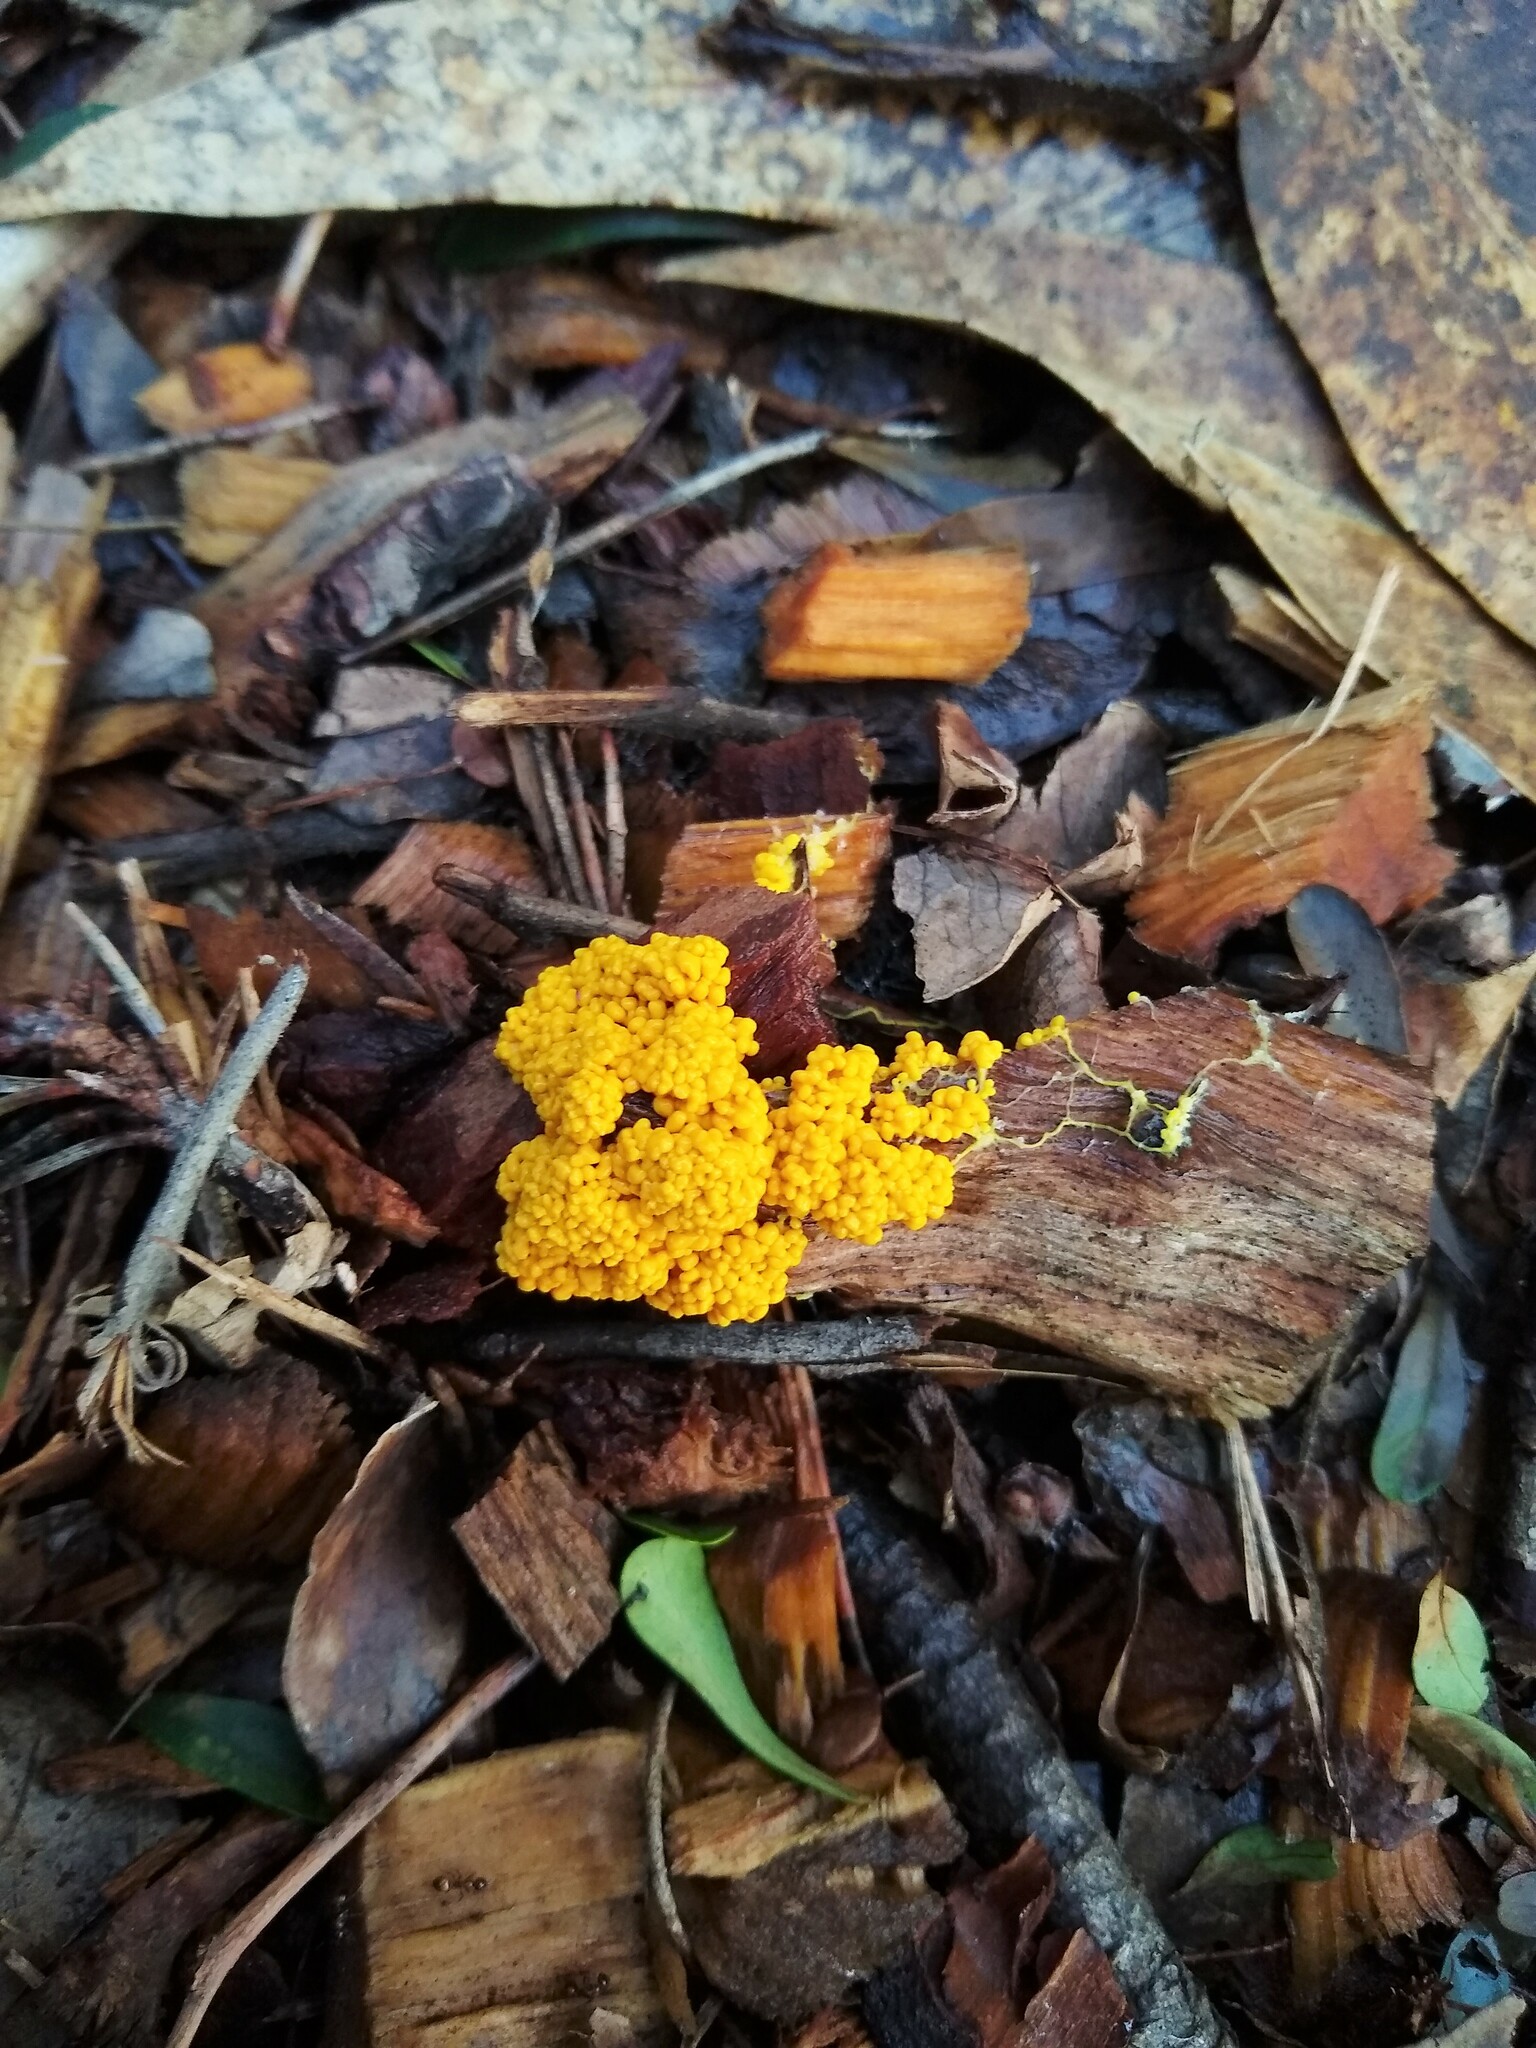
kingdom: Protozoa
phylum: Mycetozoa
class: Myxomycetes
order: Physarales
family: Physaraceae
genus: Leocarpus
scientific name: Leocarpus fragilis
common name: Insect-egg slime
